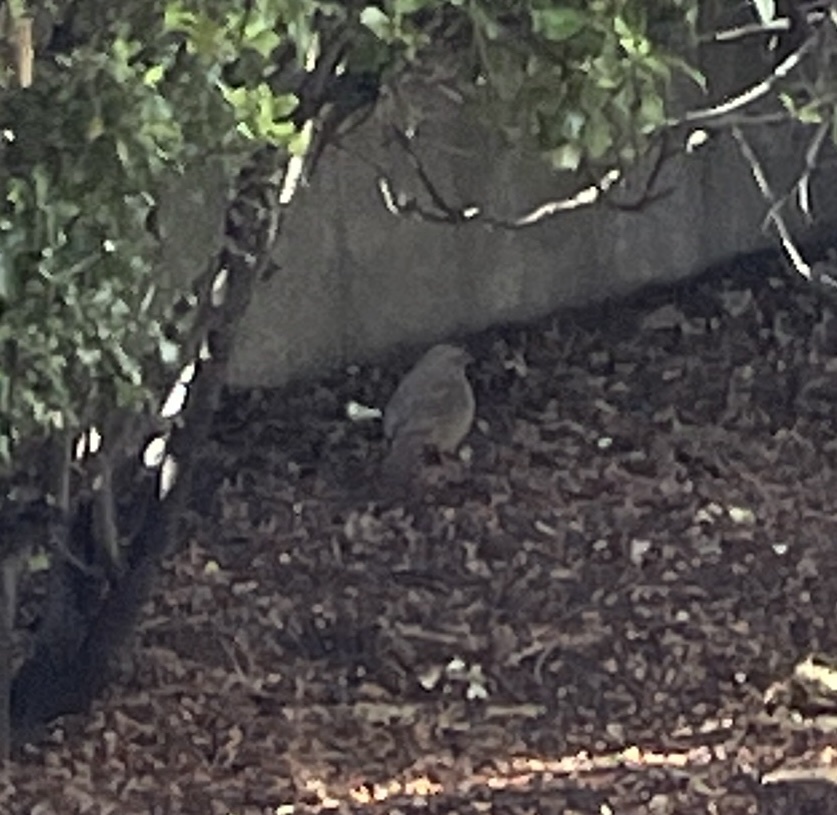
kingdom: Animalia
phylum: Chordata
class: Aves
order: Passeriformes
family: Passerellidae
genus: Melozone
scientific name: Melozone crissalis
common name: California towhee
